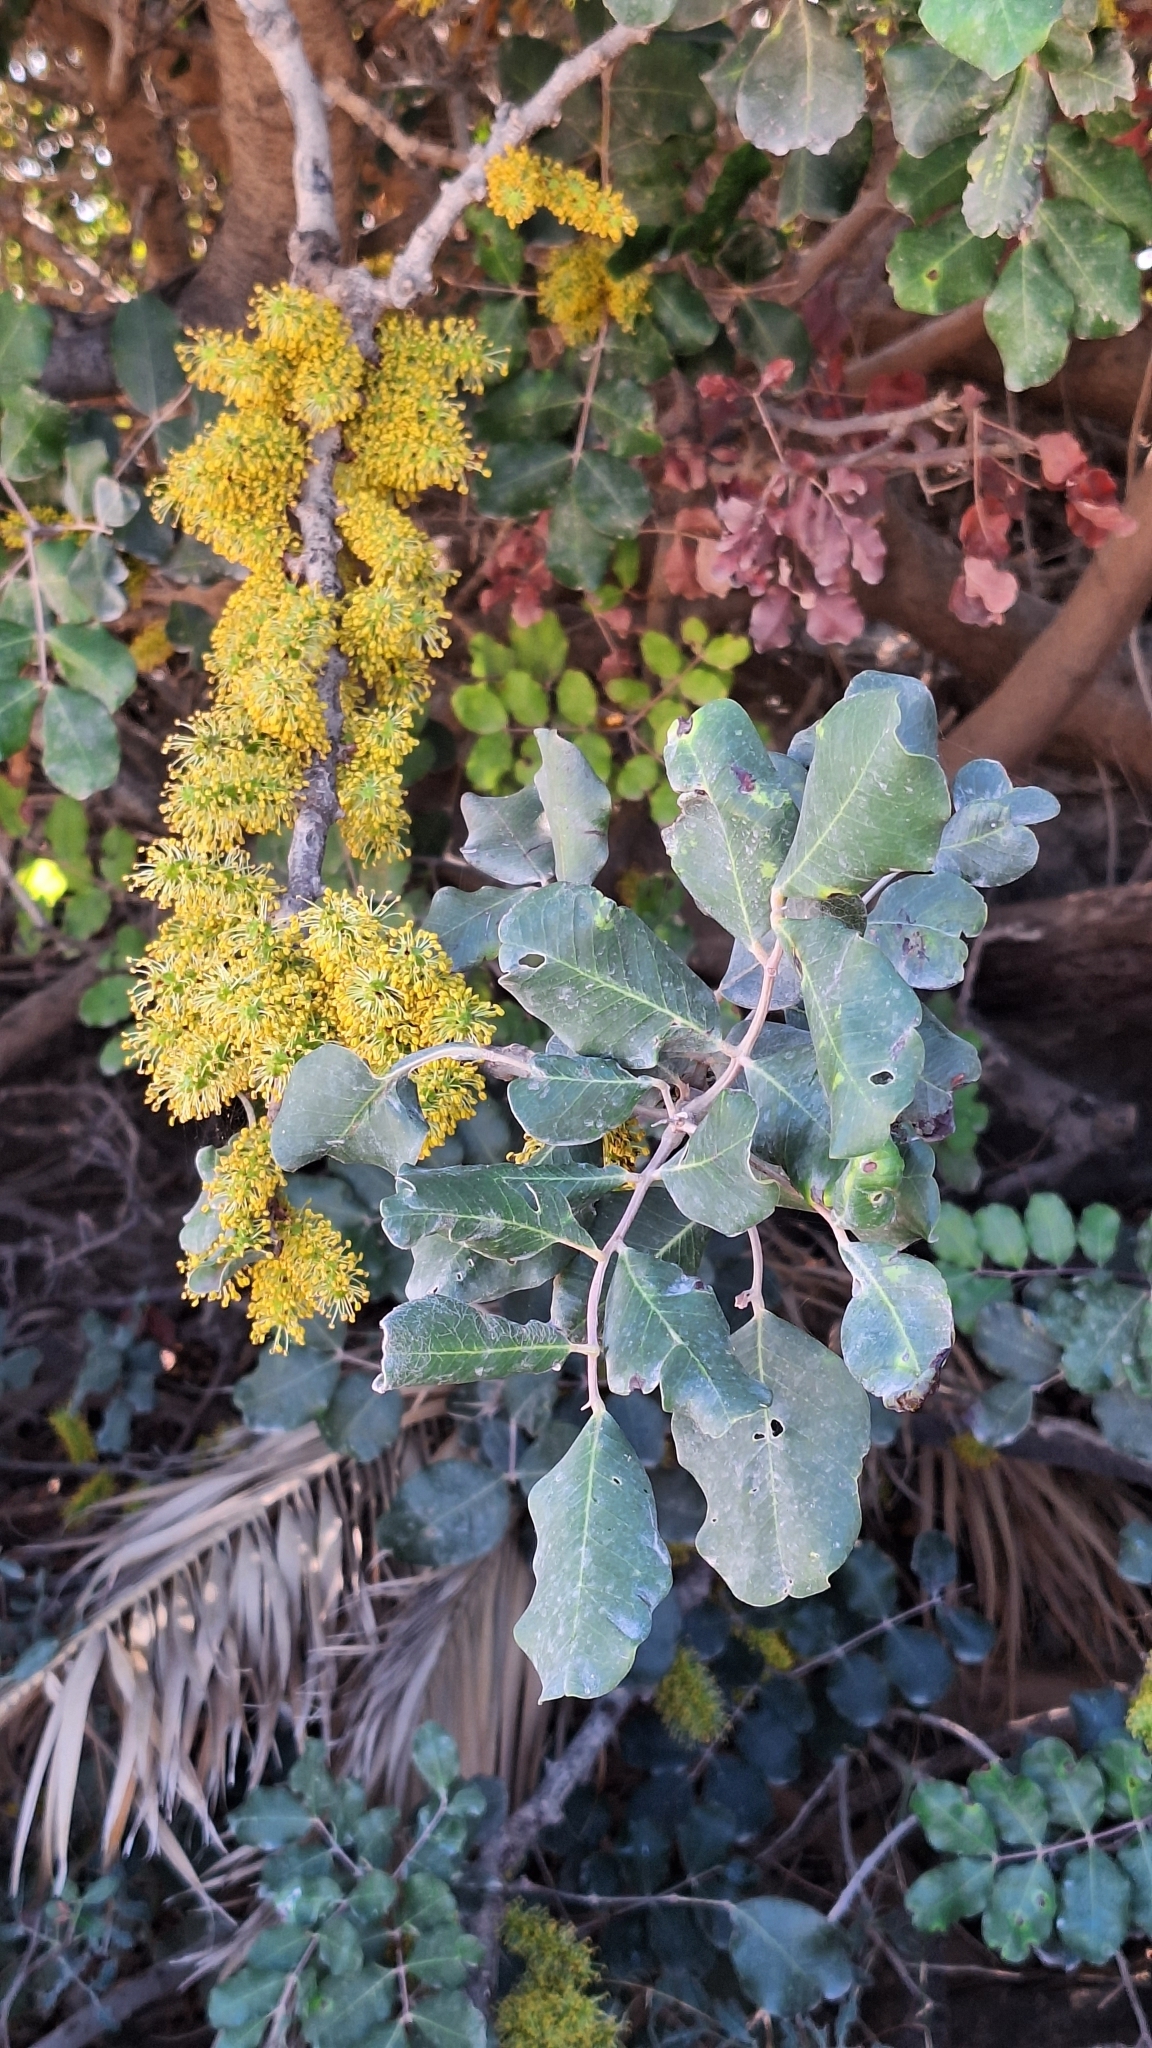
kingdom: Plantae
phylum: Tracheophyta
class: Magnoliopsida
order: Fabales
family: Fabaceae
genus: Ceratonia
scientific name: Ceratonia siliqua
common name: Carob
